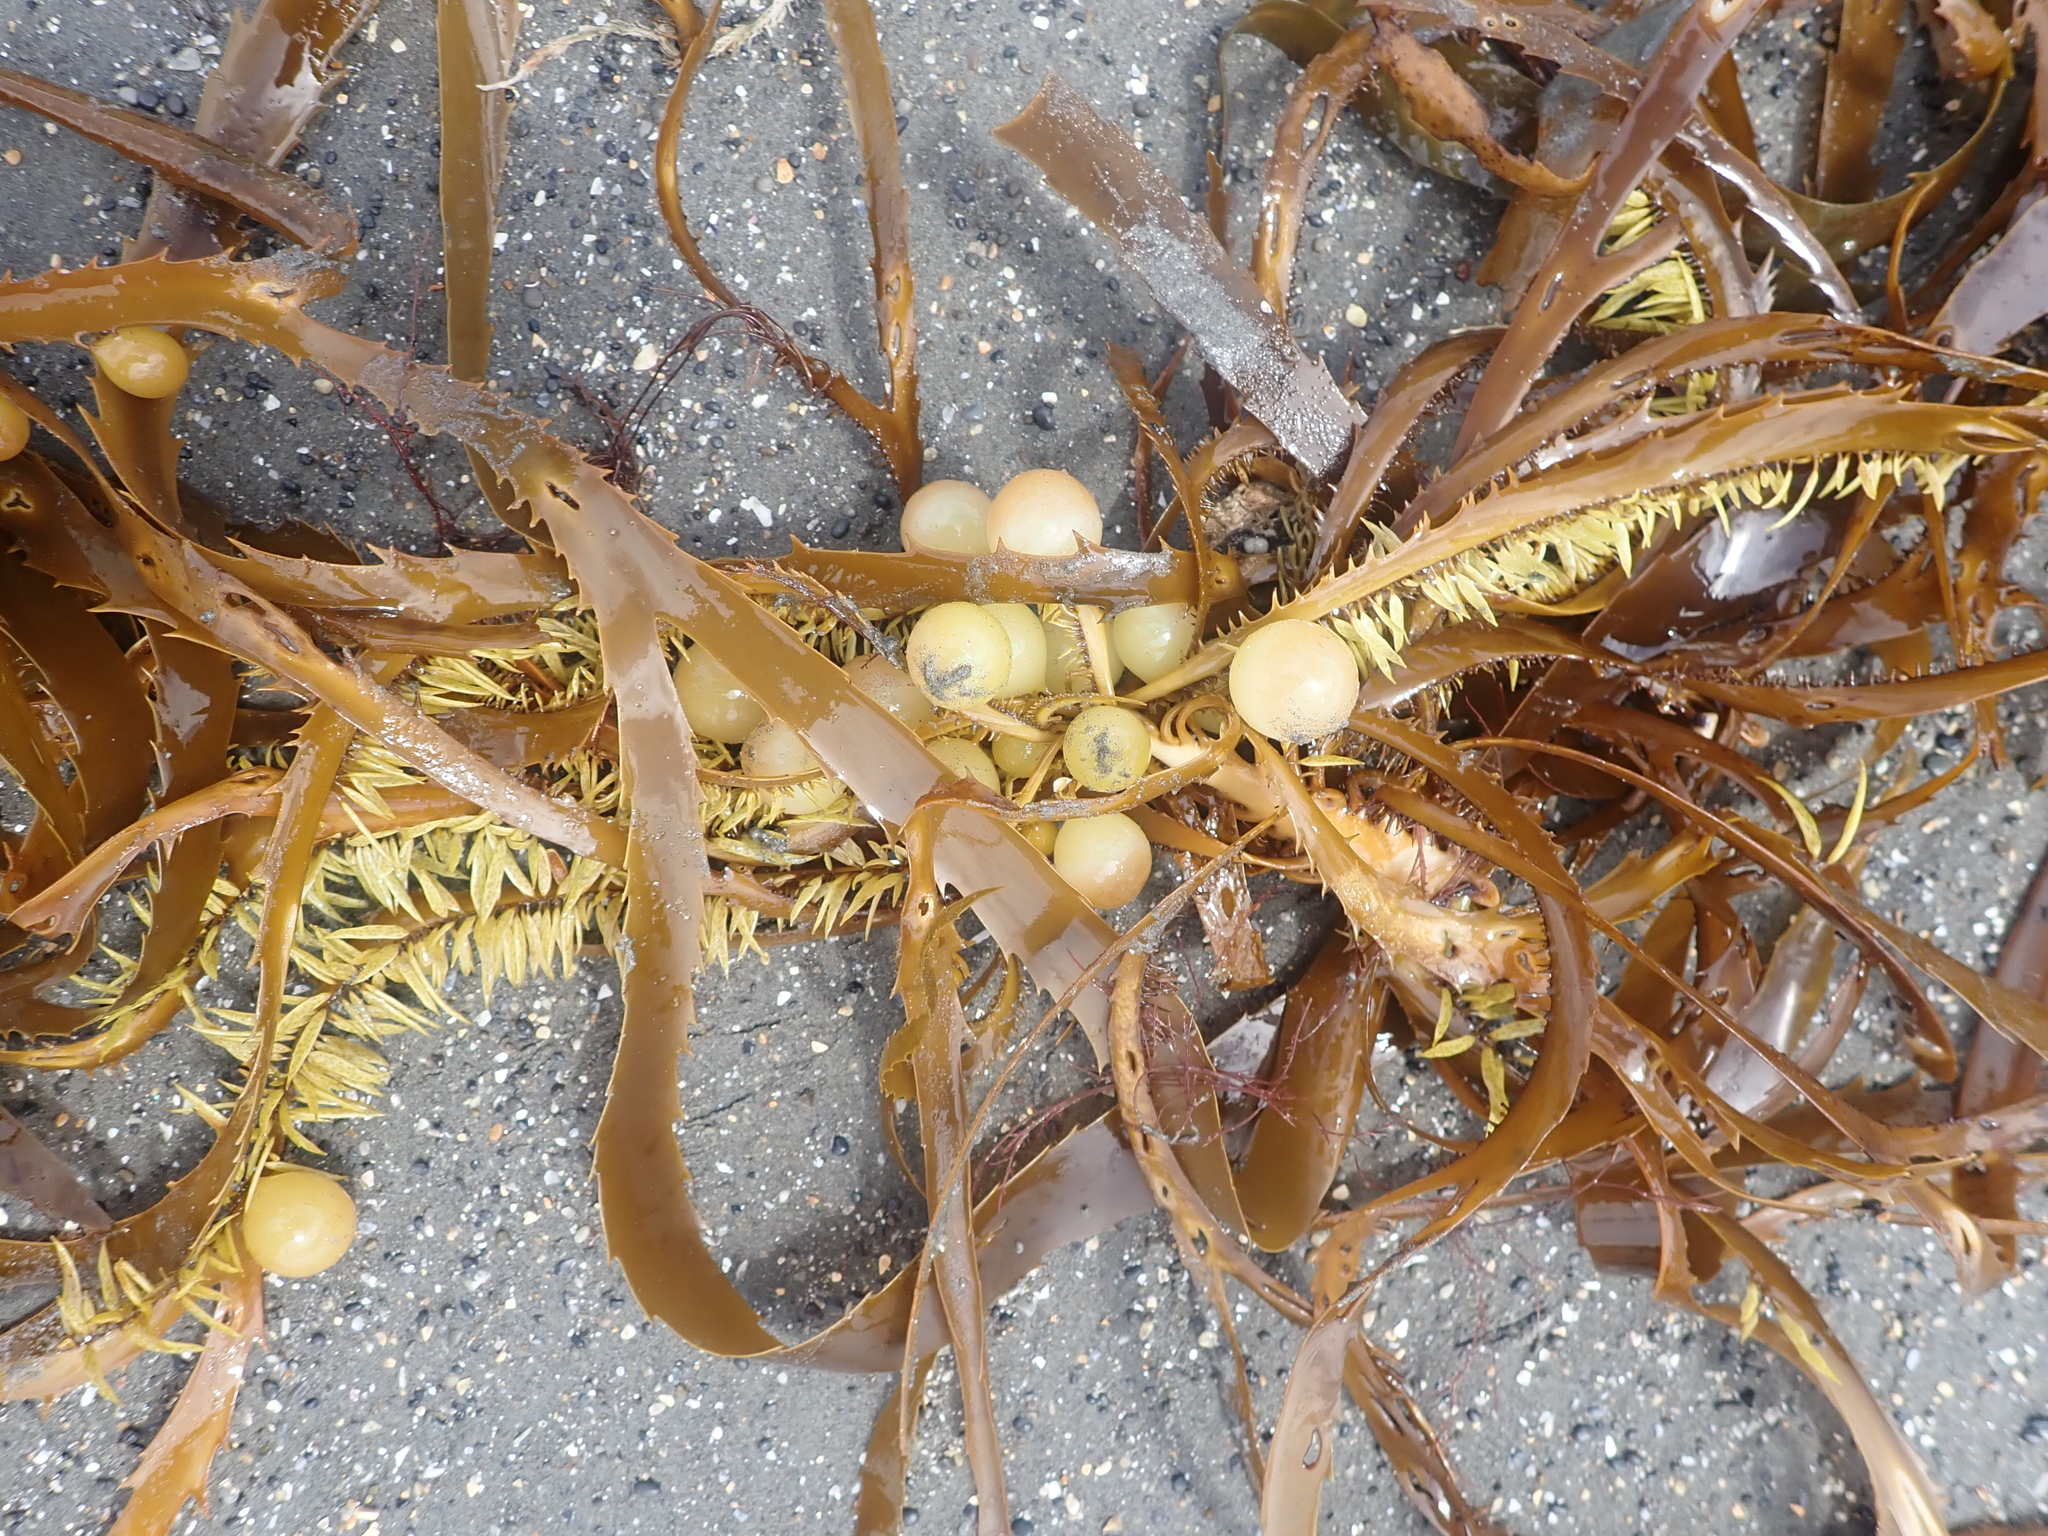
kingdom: Chromista
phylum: Ochrophyta
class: Phaeophyceae
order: Fucales
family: Seirococcaceae
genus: Marginariella
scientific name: Marginariella urvilliana
